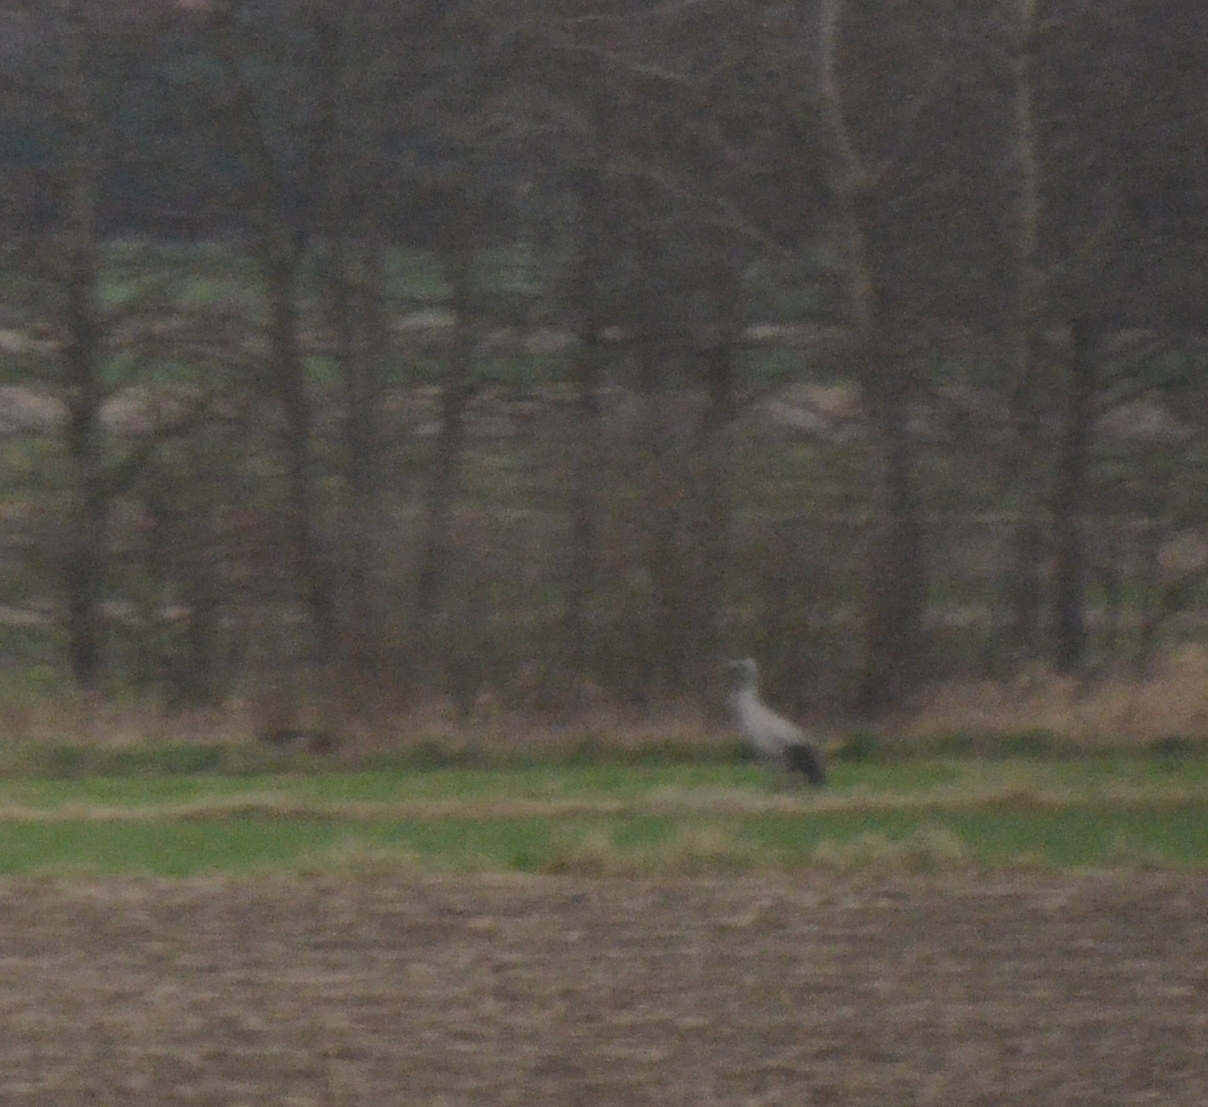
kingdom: Animalia
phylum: Chordata
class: Aves
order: Gruiformes
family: Gruidae
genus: Grus
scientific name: Grus grus
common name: Common crane
